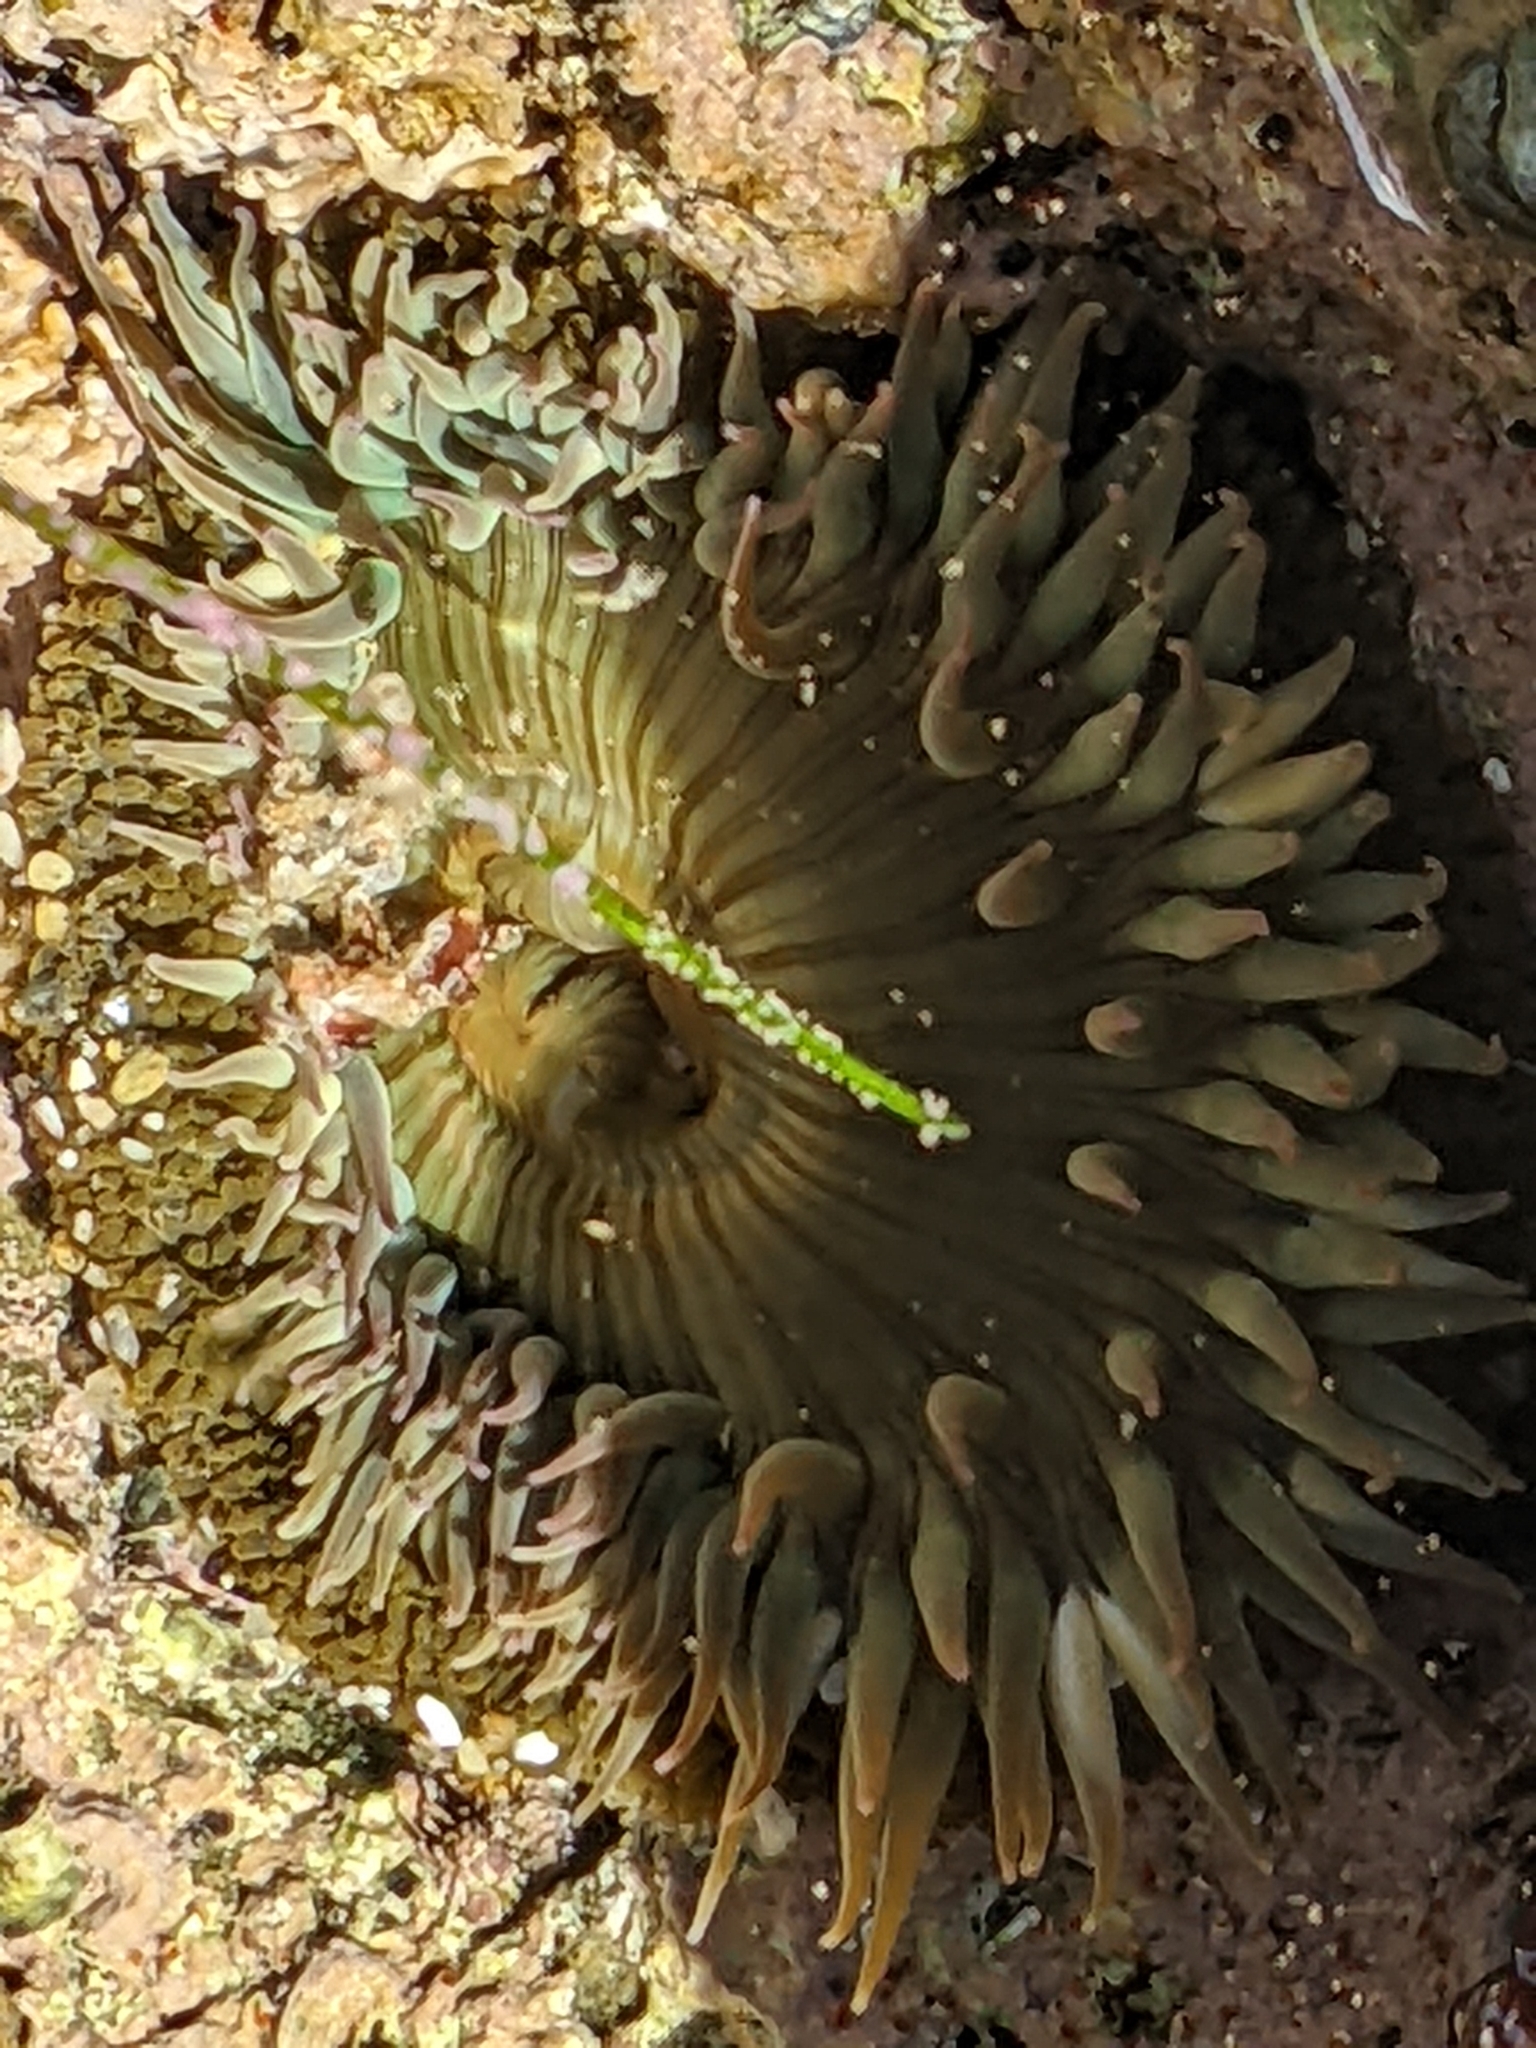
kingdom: Animalia
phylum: Cnidaria
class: Anthozoa
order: Actiniaria
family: Actiniidae
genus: Anthopleura
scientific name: Anthopleura sola
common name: Sun anemone
